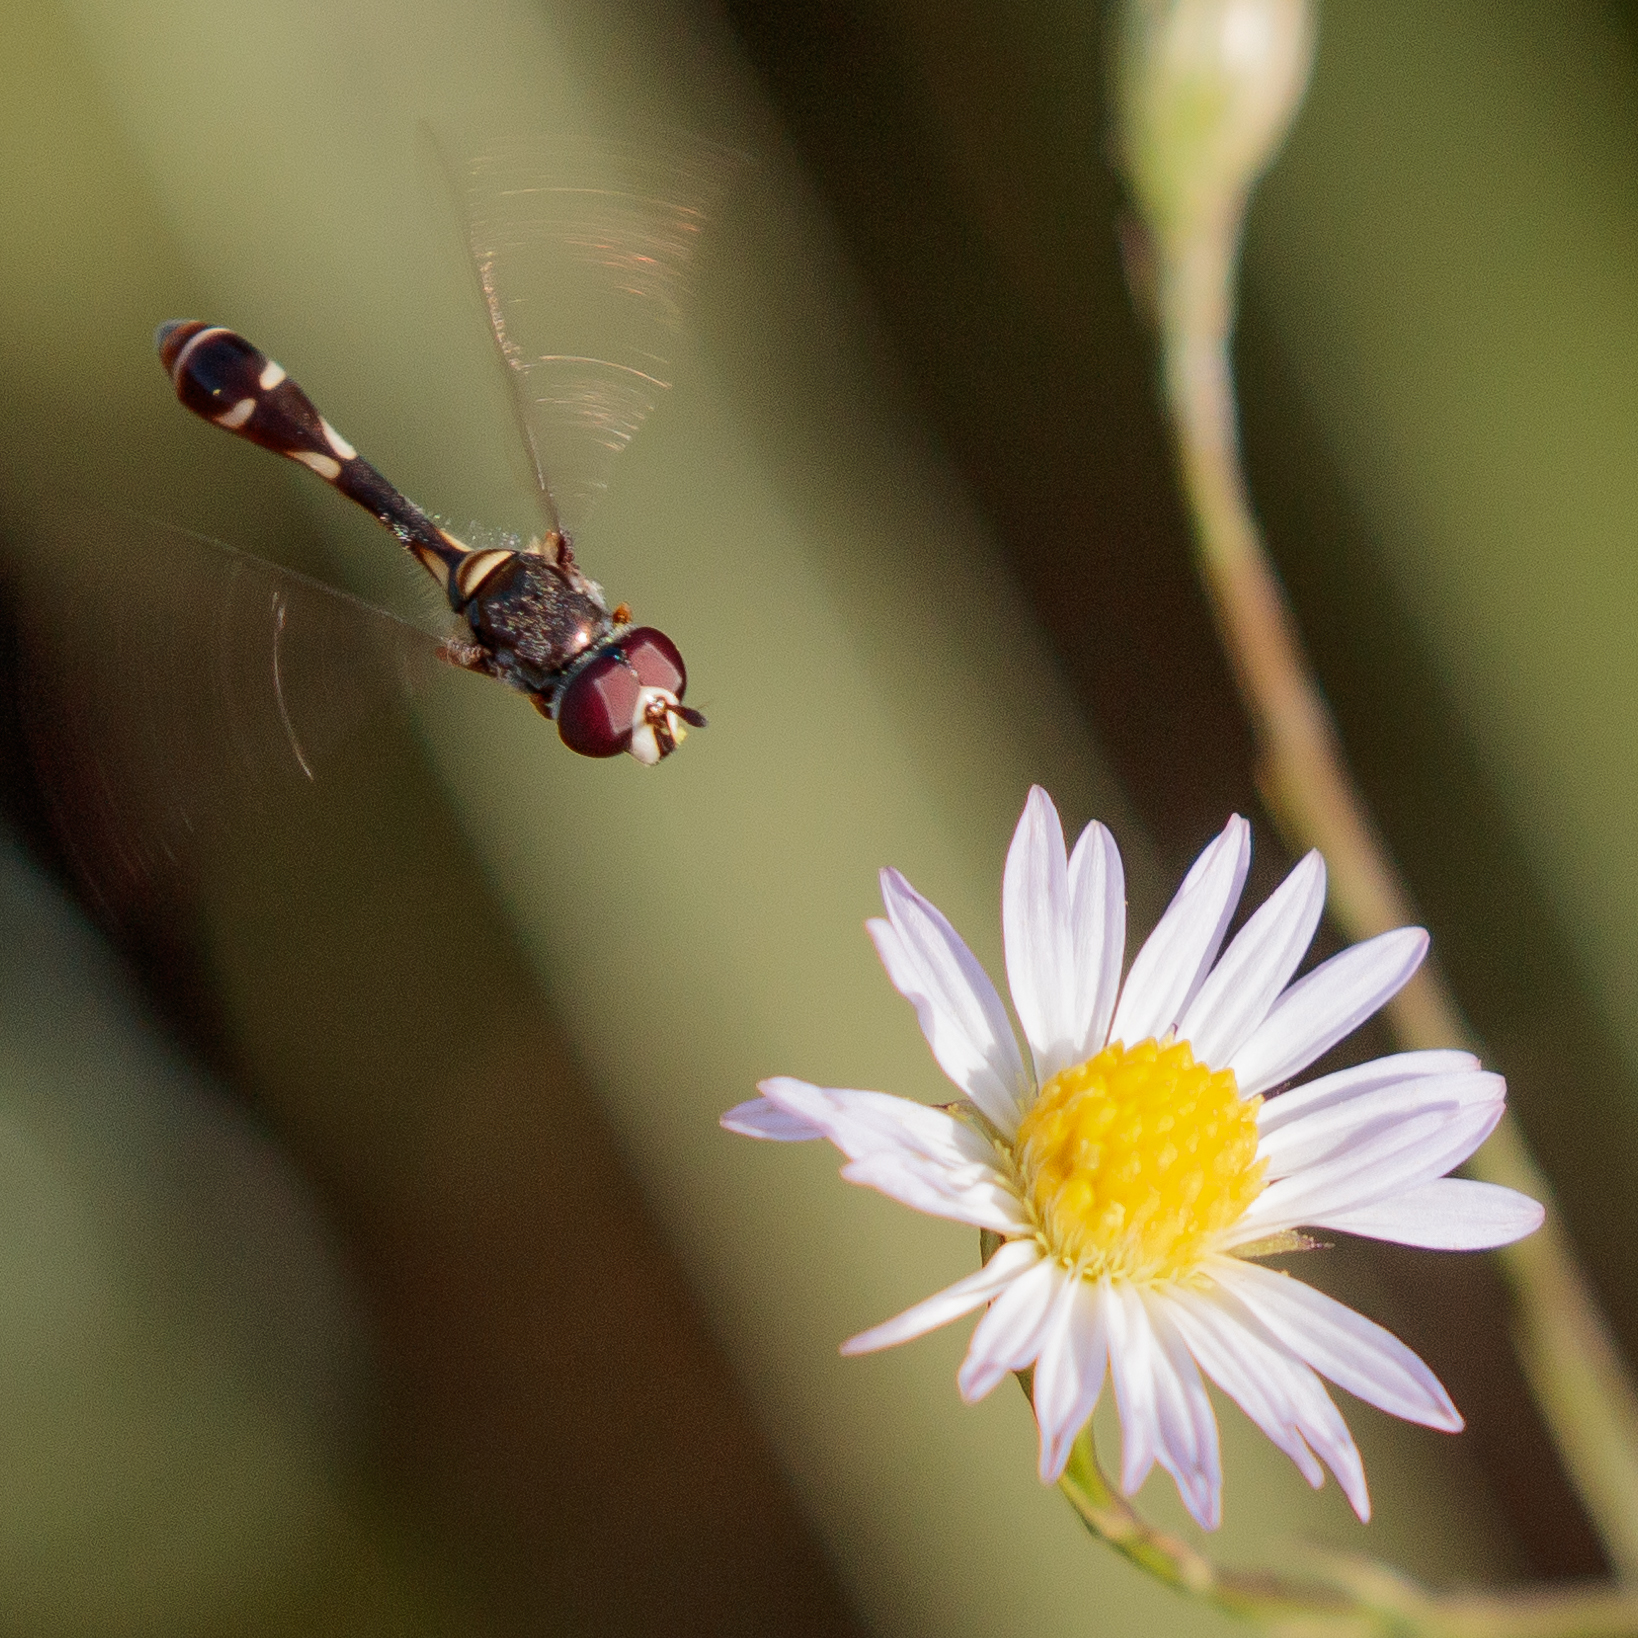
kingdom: Animalia
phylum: Arthropoda
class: Insecta
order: Diptera
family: Syrphidae
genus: Dioprosopa
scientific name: Dioprosopa clavatus
